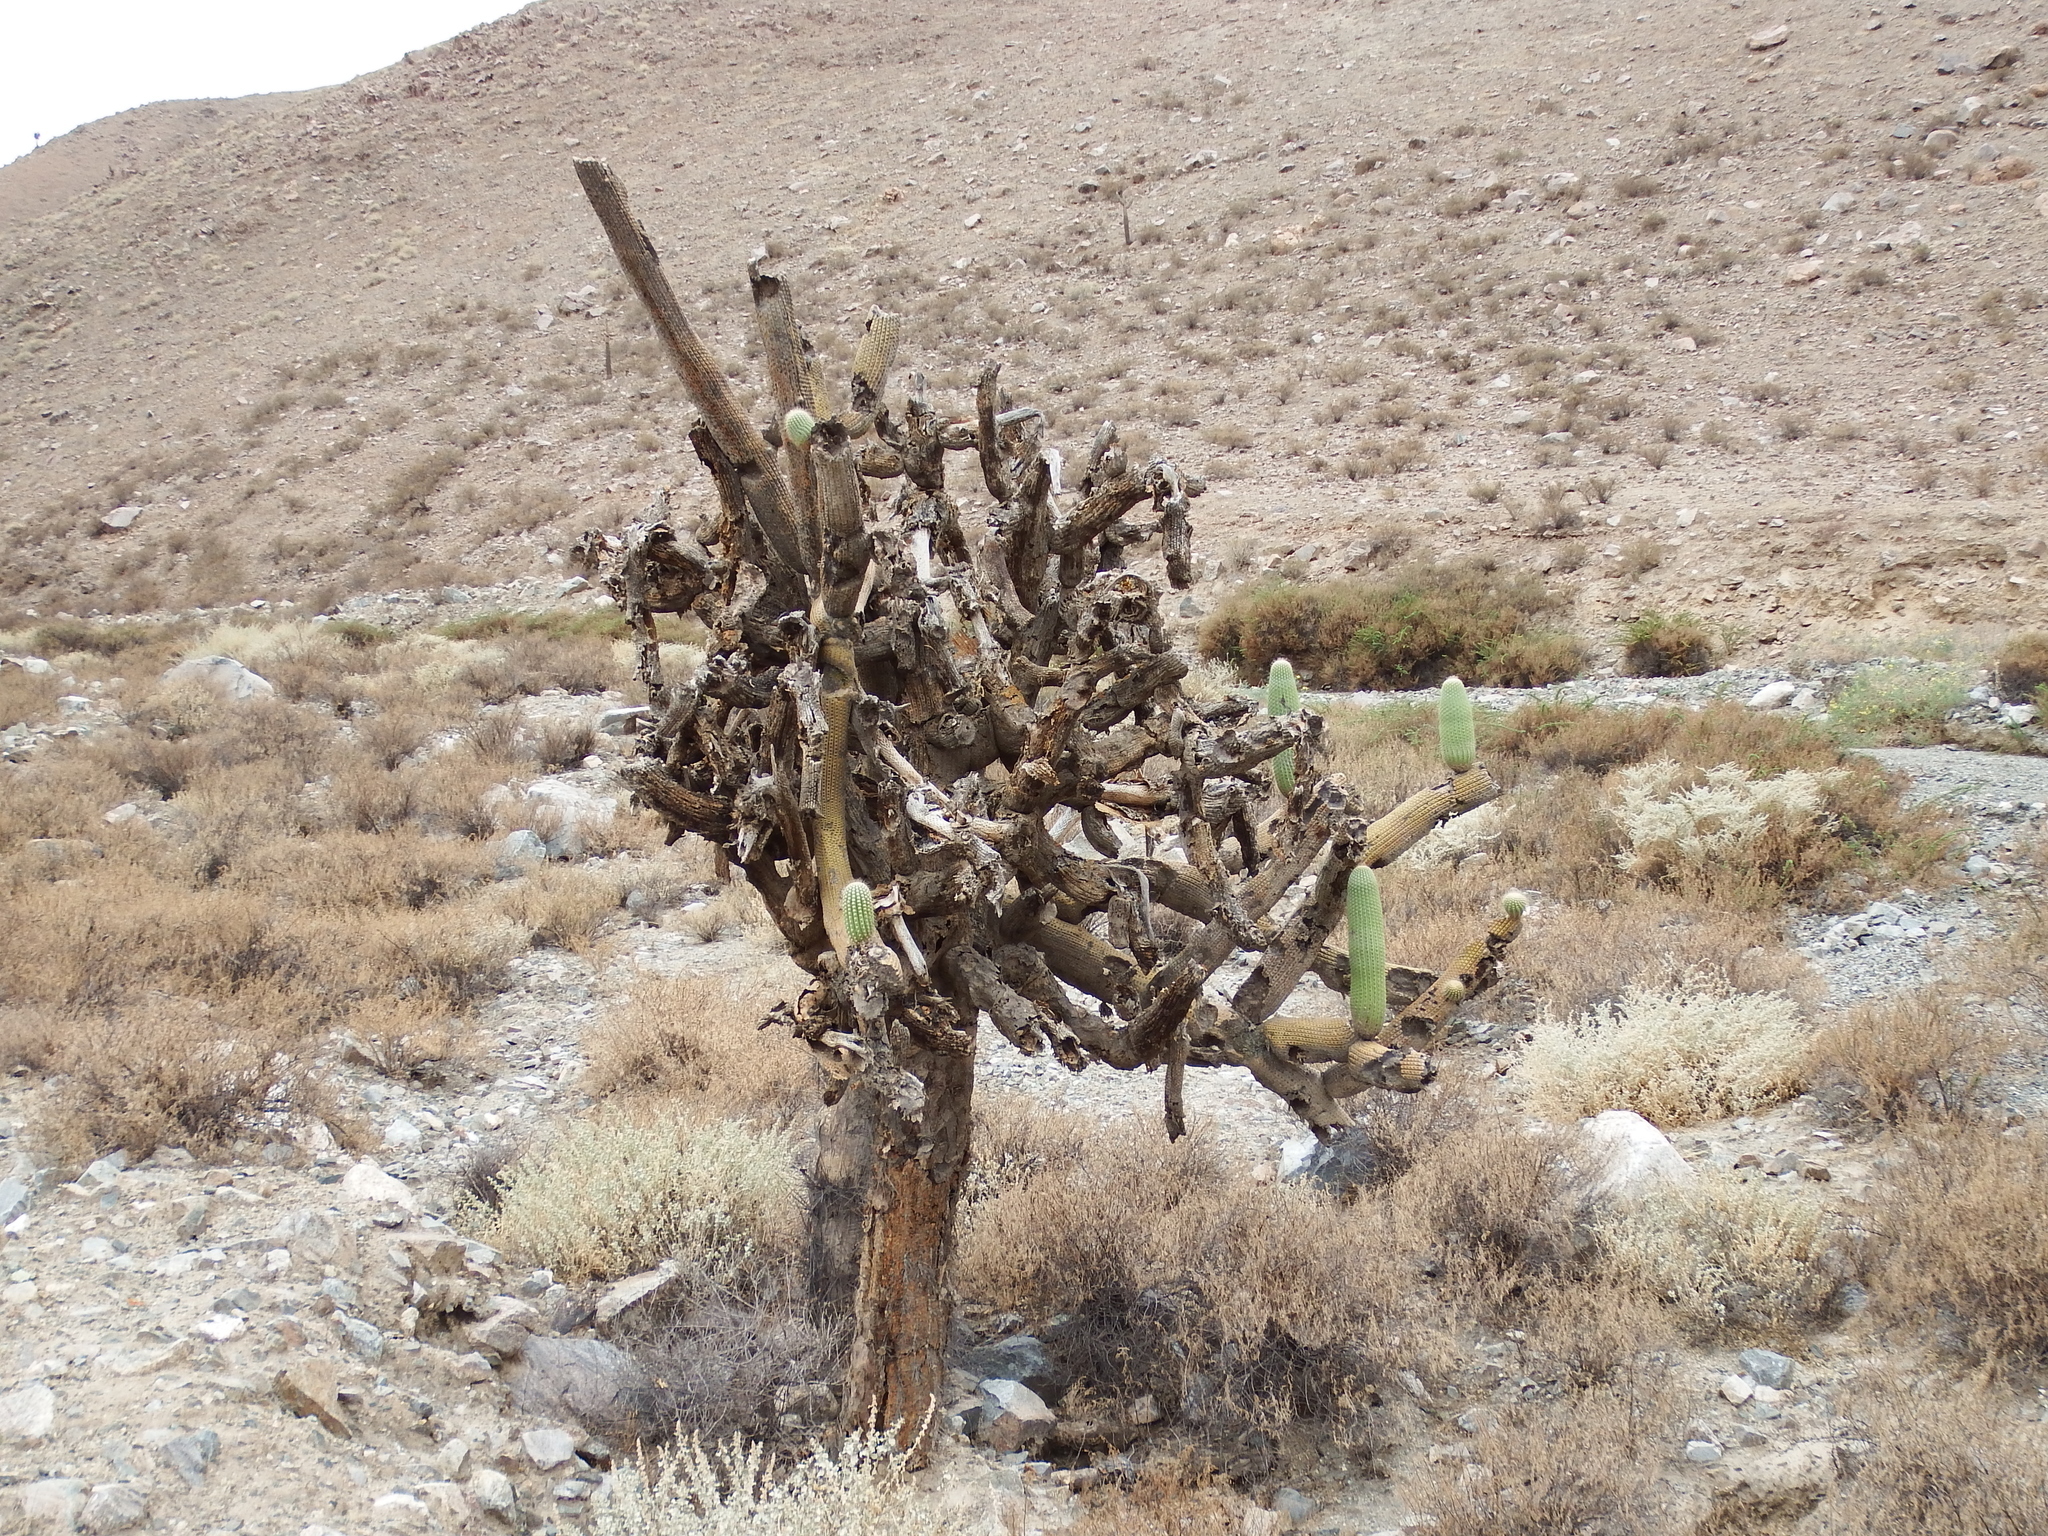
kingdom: Plantae
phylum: Tracheophyta
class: Magnoliopsida
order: Caryophyllales
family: Cactaceae
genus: Browningia
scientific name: Browningia candelaris
